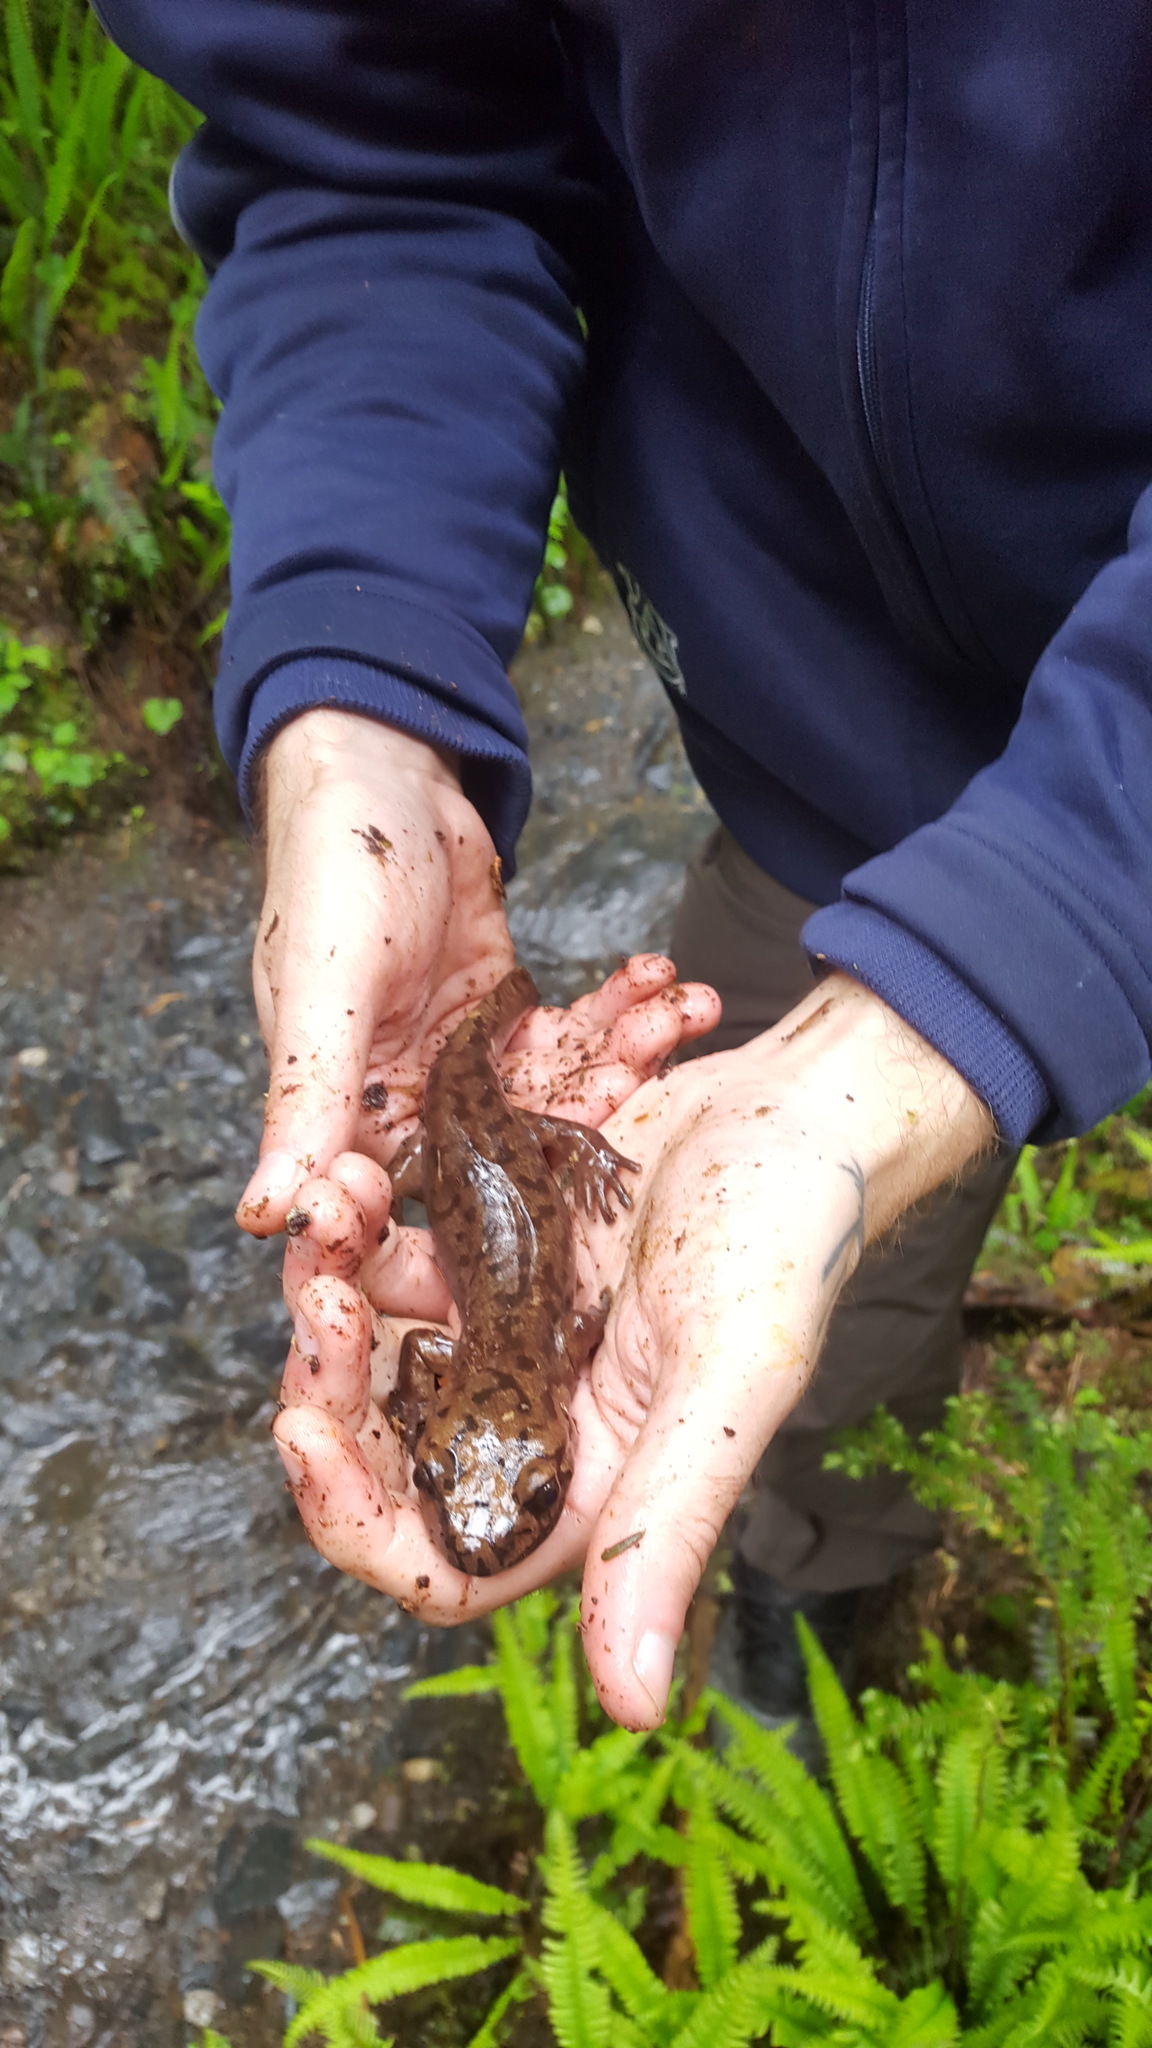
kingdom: Animalia
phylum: Chordata
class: Amphibia
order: Caudata
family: Ambystomatidae
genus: Dicamptodon
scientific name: Dicamptodon tenebrosus
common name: Coastal giant salamander
